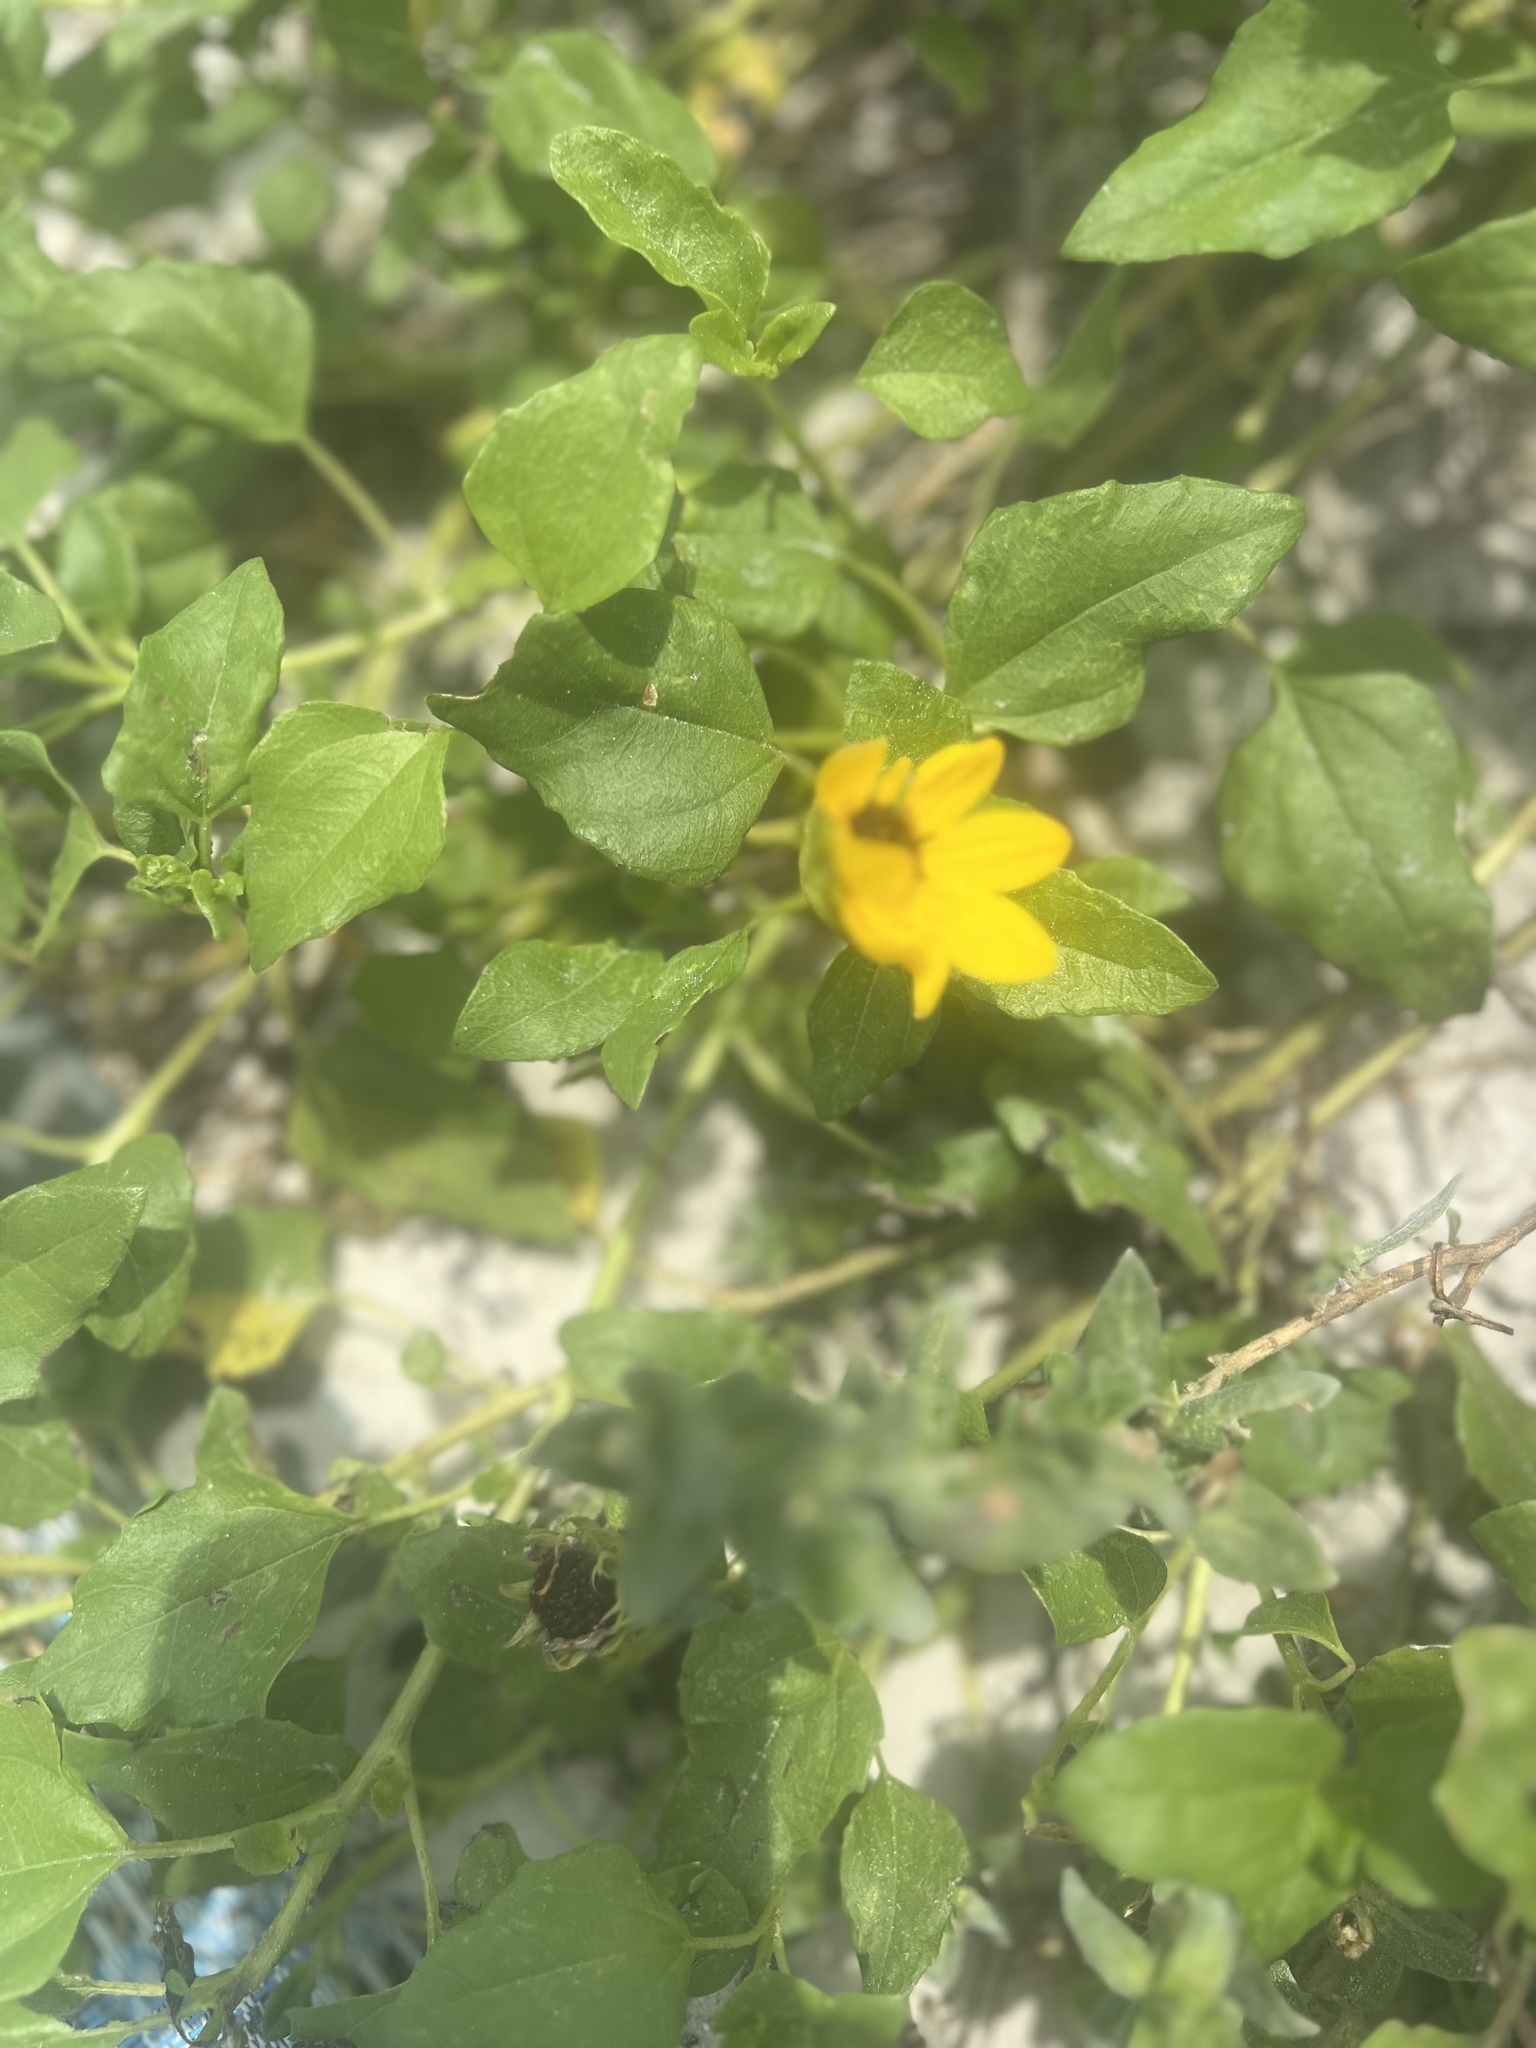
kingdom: Plantae
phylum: Tracheophyta
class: Magnoliopsida
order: Asterales
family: Asteraceae
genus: Helianthus
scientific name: Helianthus debilis
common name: Weak sunflower
